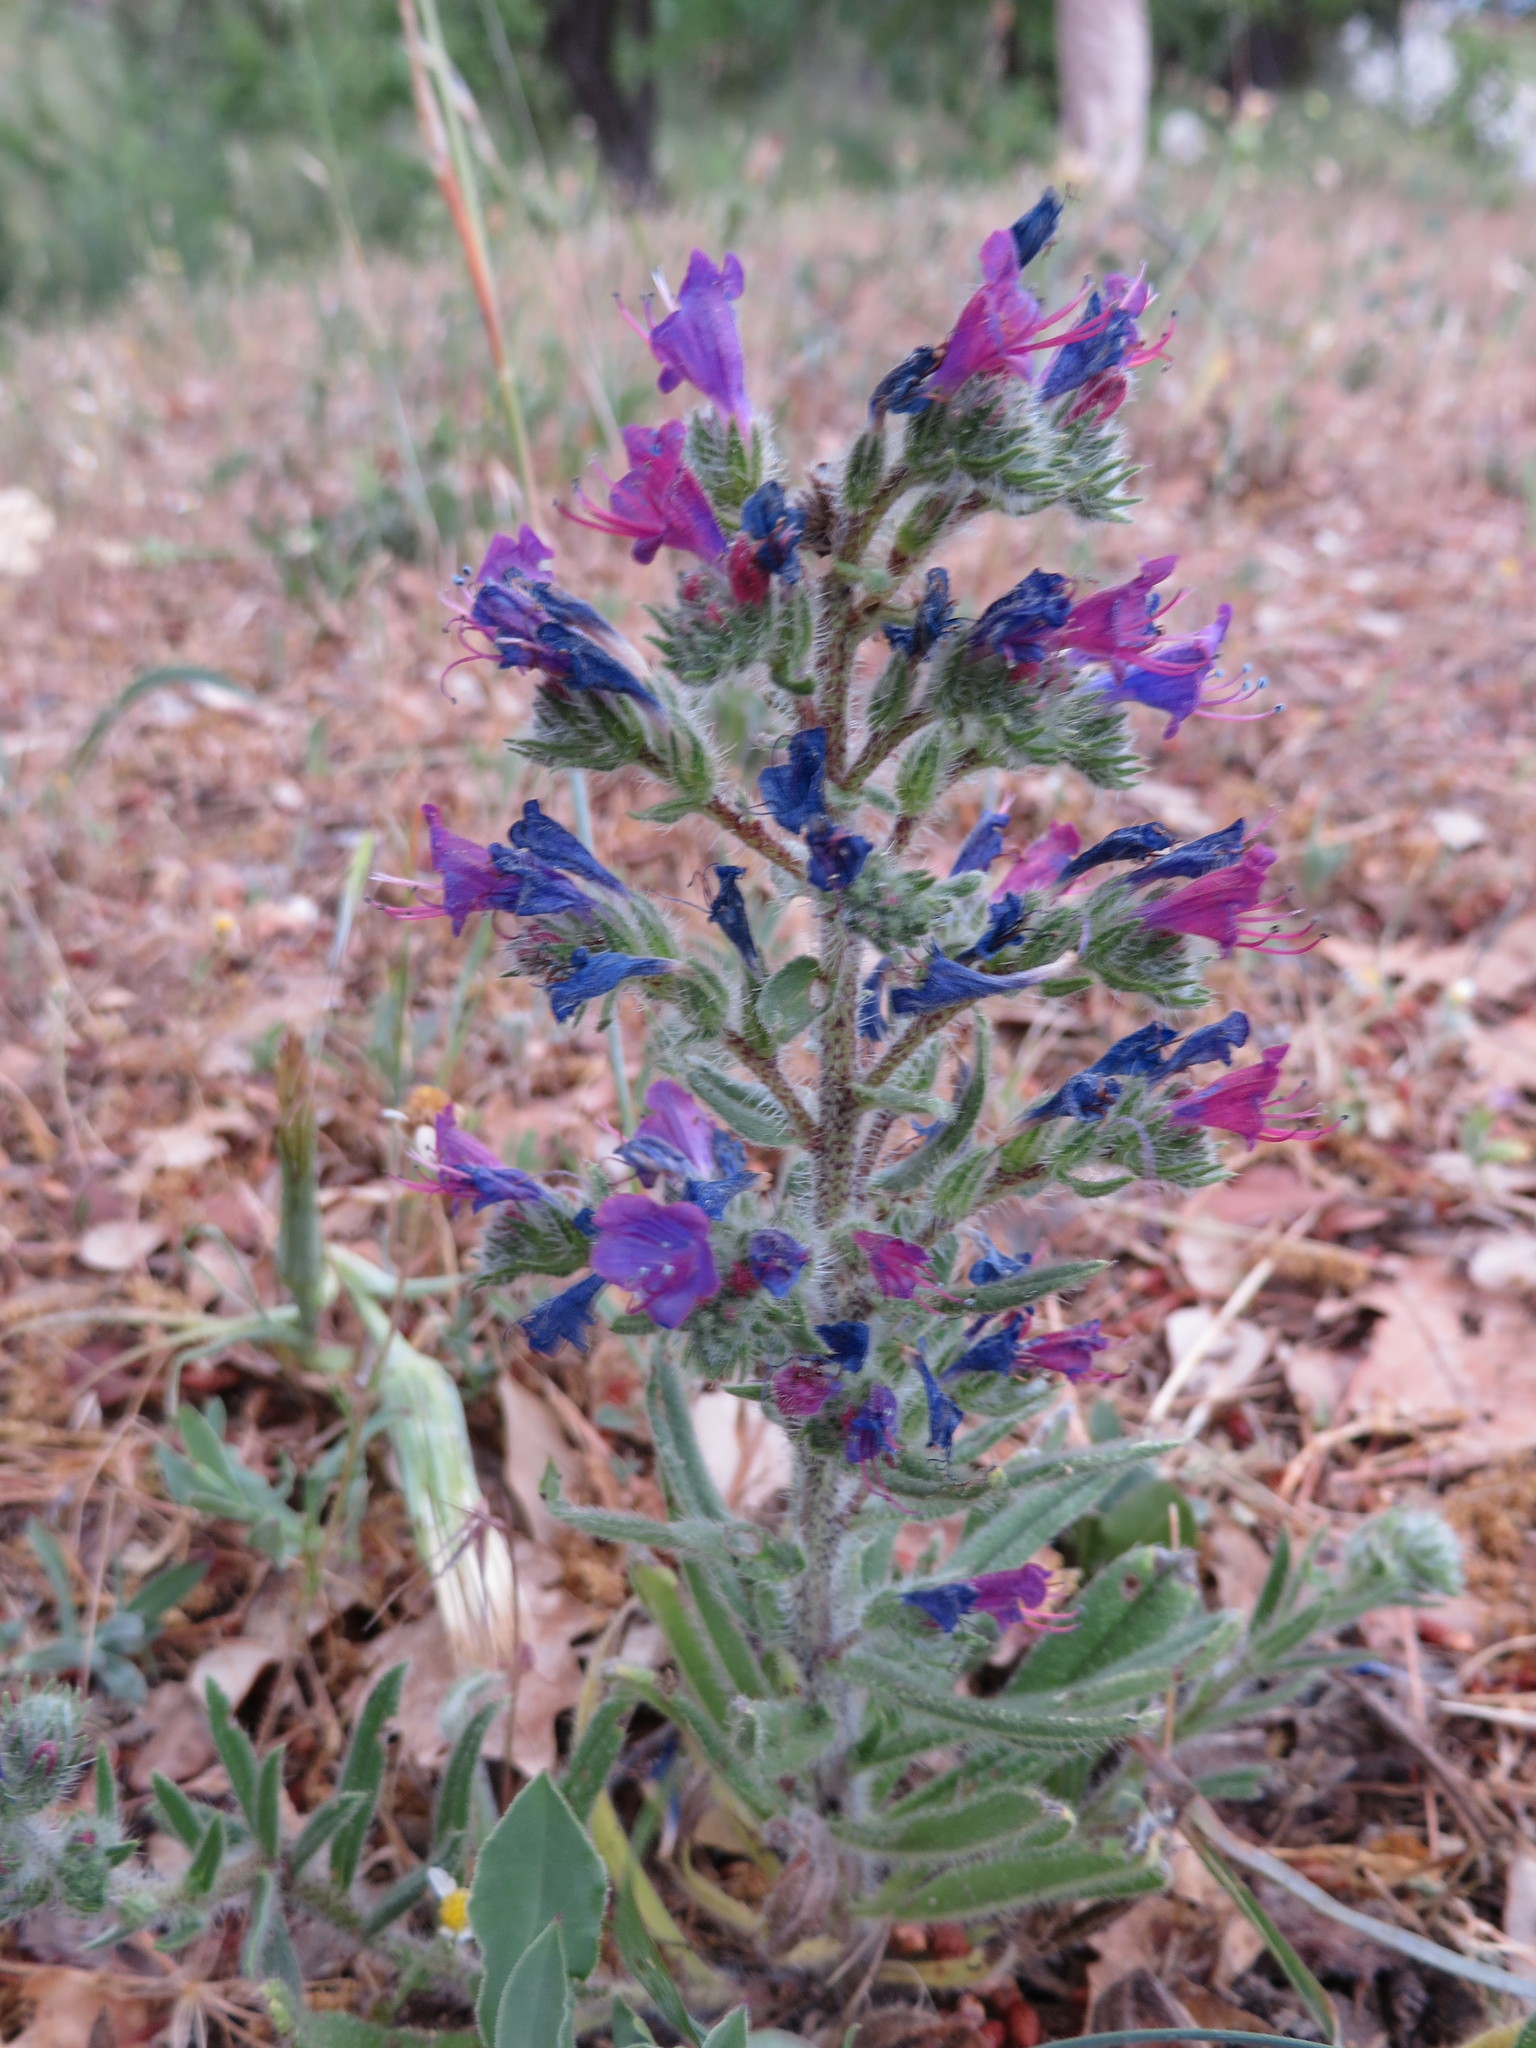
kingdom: Plantae
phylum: Tracheophyta
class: Magnoliopsida
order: Boraginales
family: Boraginaceae
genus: Echium
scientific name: Echium vulgare
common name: Common viper's bugloss
